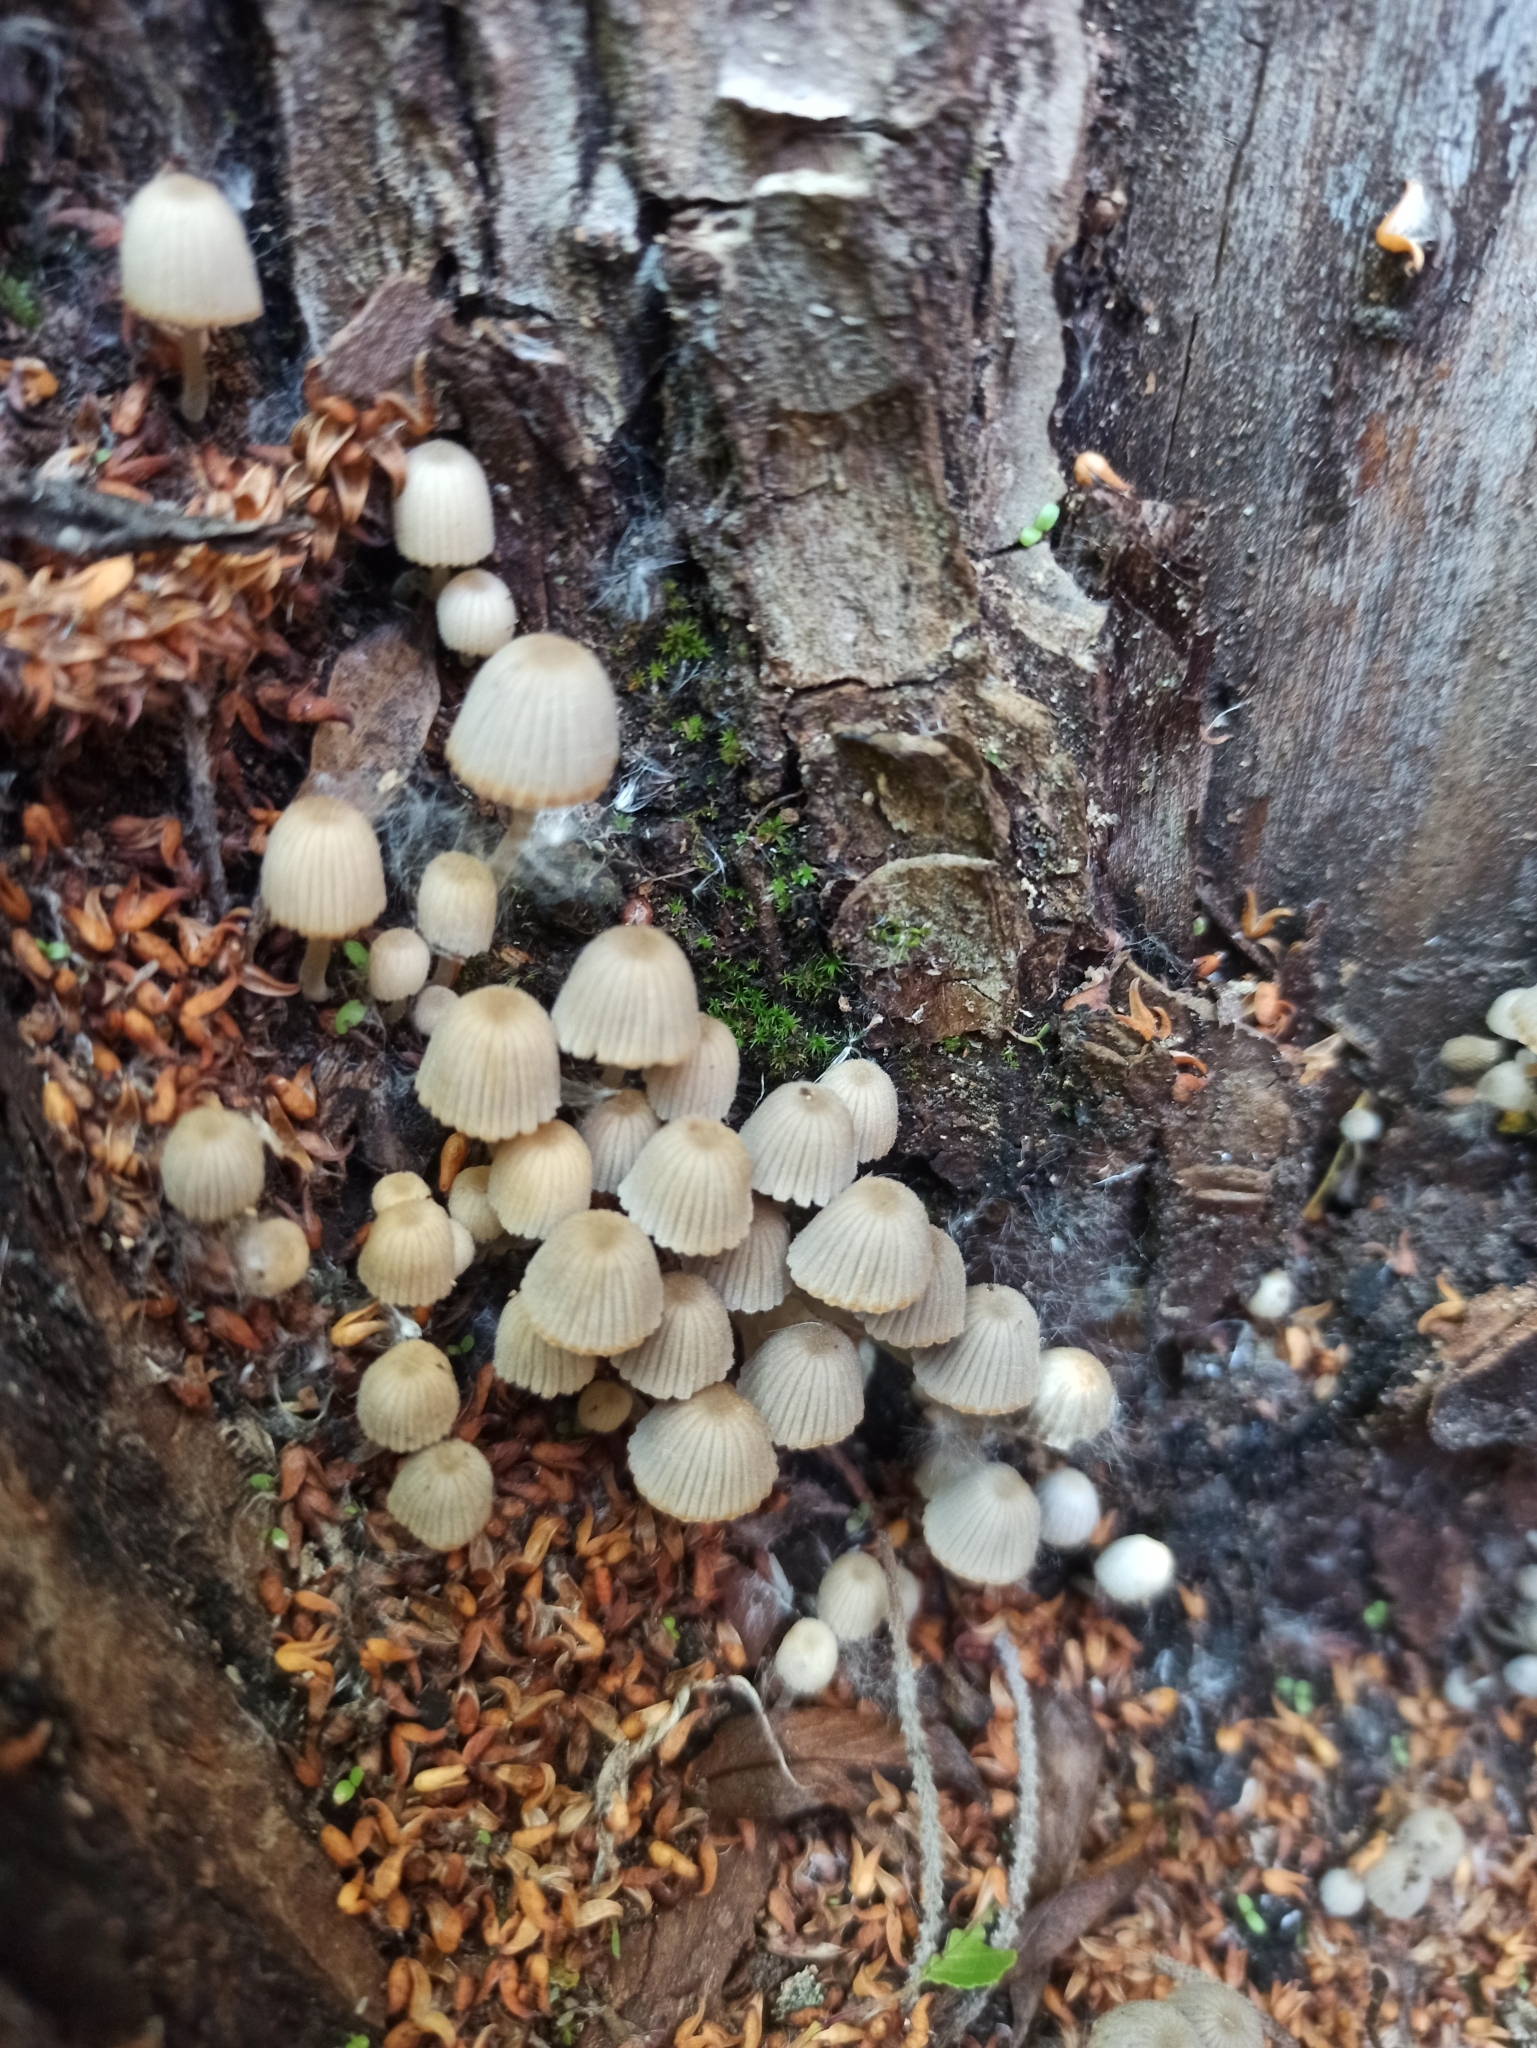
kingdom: Fungi
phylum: Basidiomycota
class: Agaricomycetes
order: Agaricales
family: Psathyrellaceae
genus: Coprinellus
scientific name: Coprinellus disseminatus
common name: Fairies' bonnets
